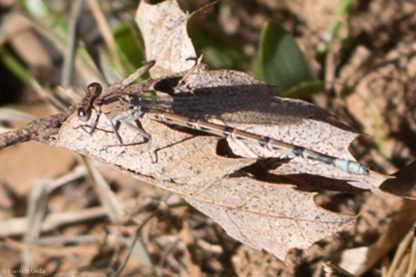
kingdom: Animalia
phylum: Arthropoda
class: Insecta
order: Odonata
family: Coenagrionidae
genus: Argia
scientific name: Argia vivida
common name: Vivid dancer
